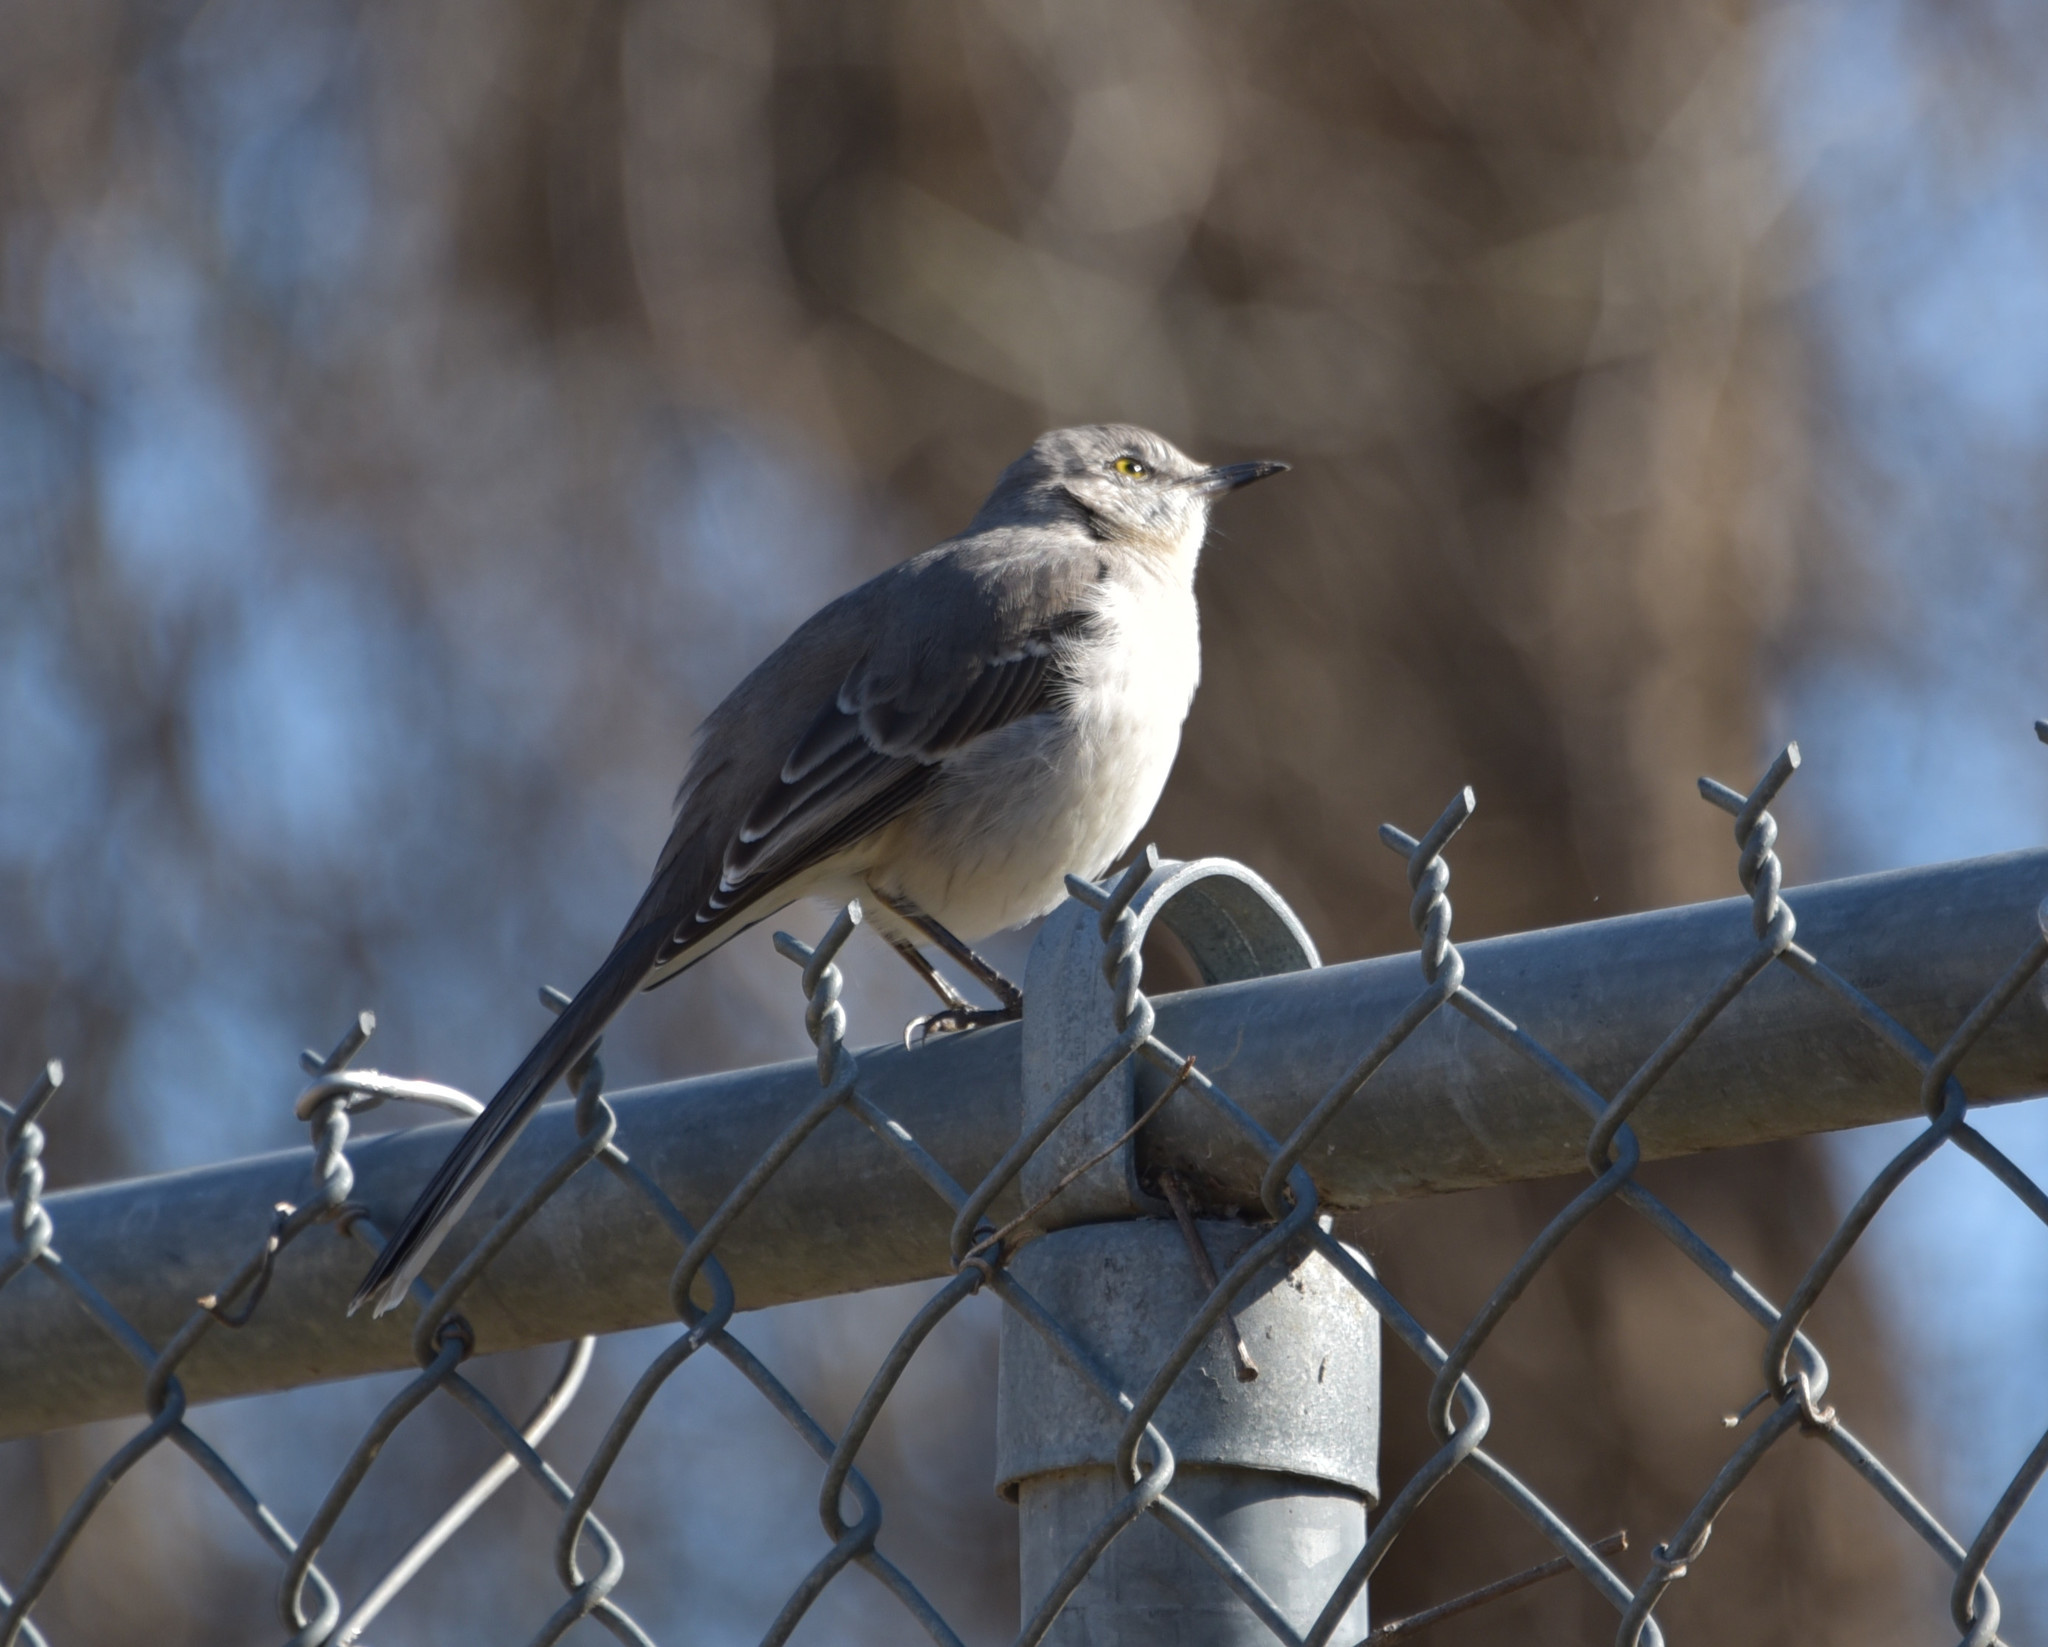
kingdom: Animalia
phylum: Chordata
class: Aves
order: Passeriformes
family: Mimidae
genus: Mimus
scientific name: Mimus polyglottos
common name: Northern mockingbird
